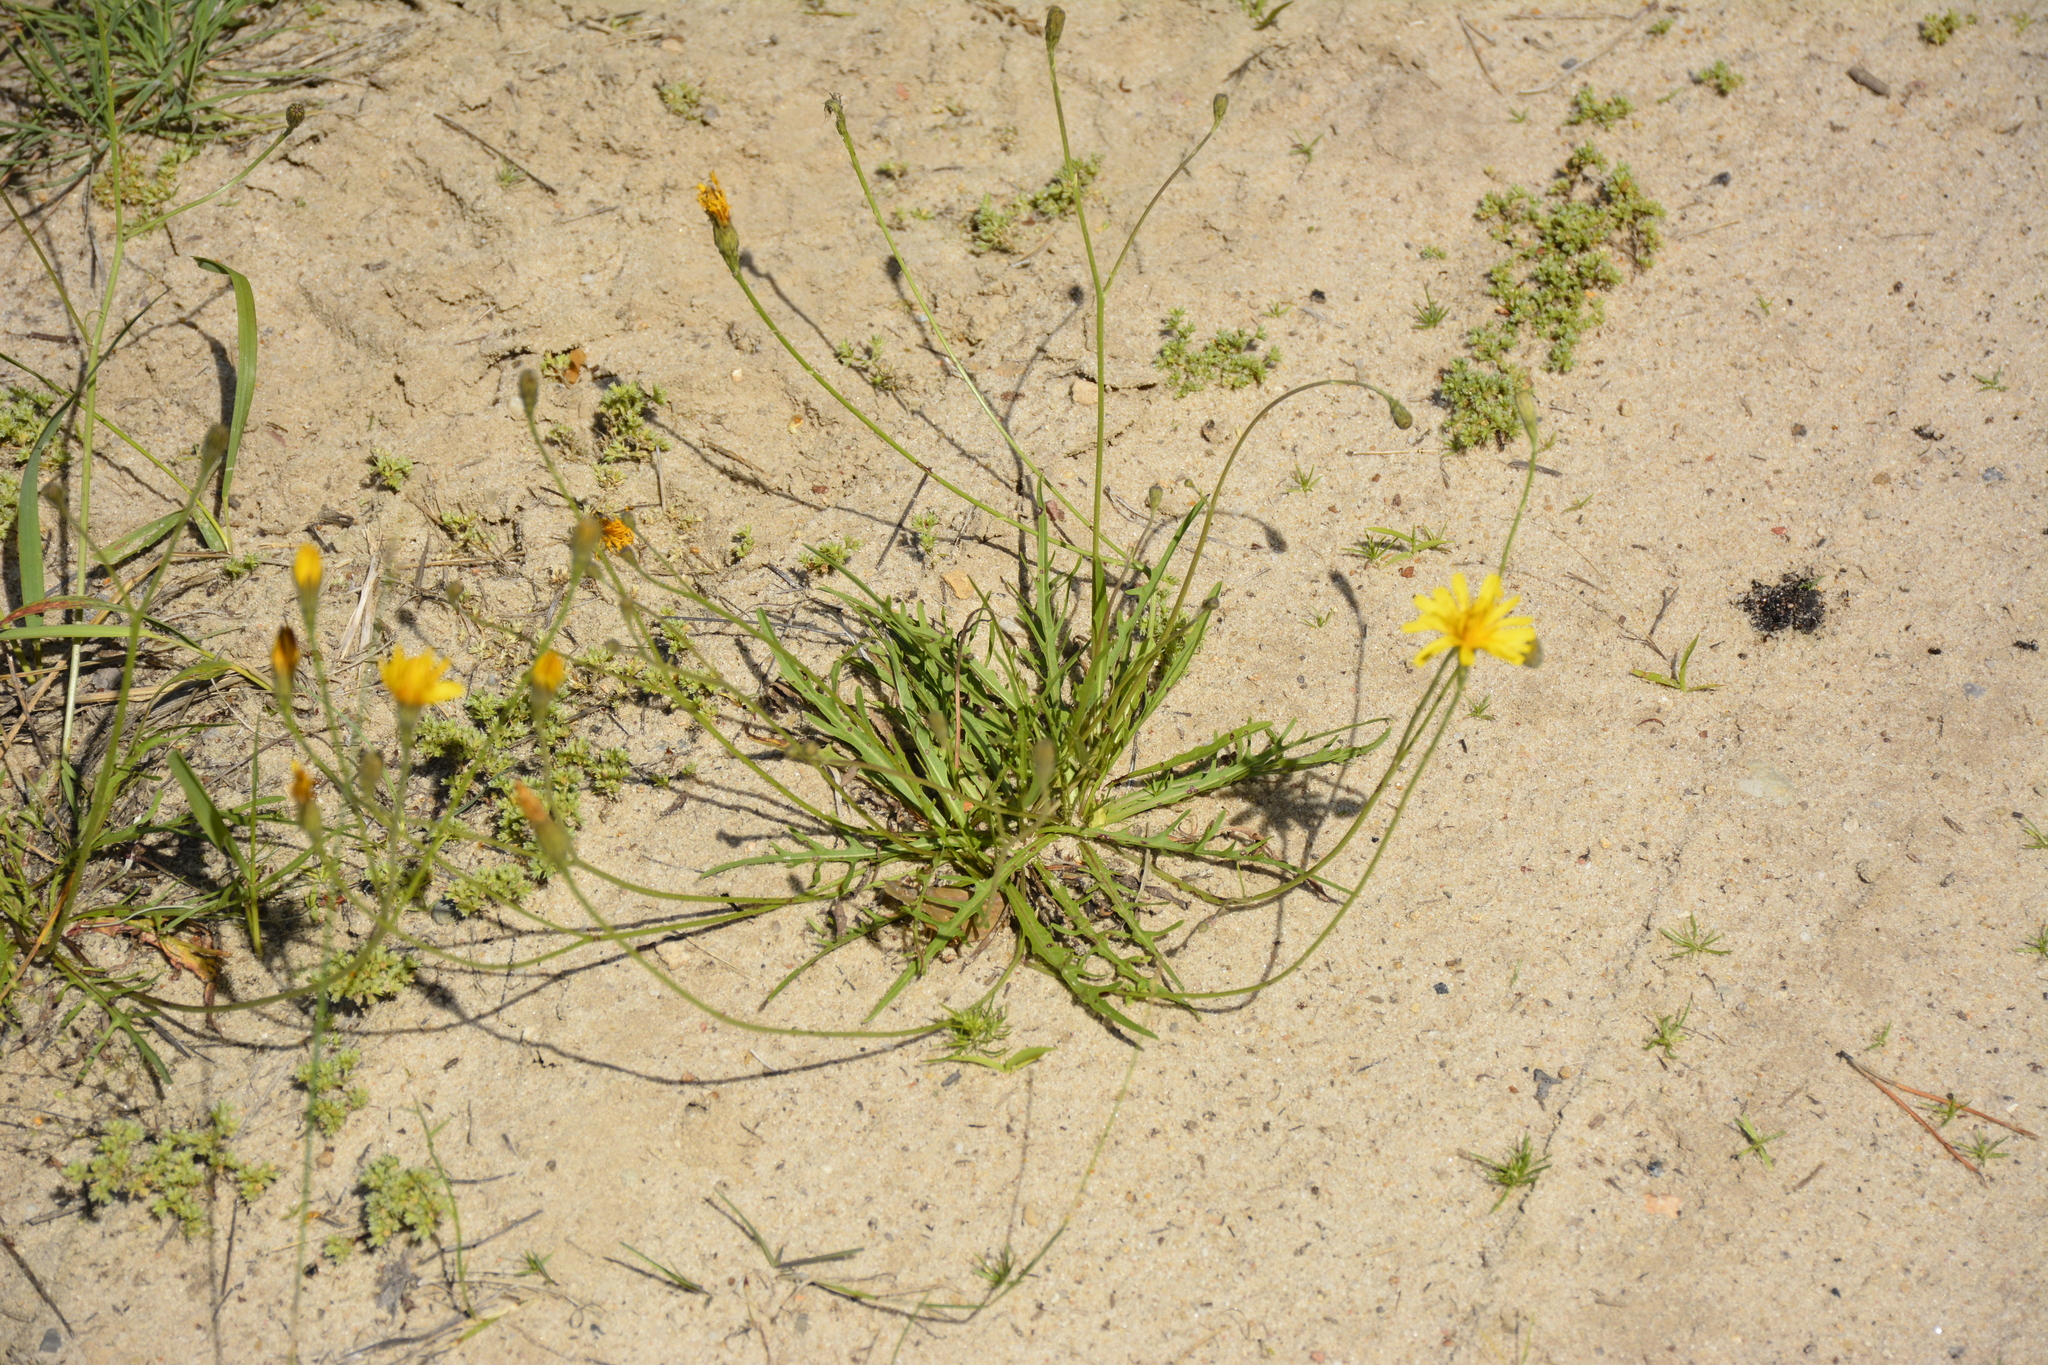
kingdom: Plantae
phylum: Tracheophyta
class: Magnoliopsida
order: Asterales
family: Asteraceae
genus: Scorzoneroides
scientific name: Scorzoneroides autumnalis
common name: Autumn hawkbit
